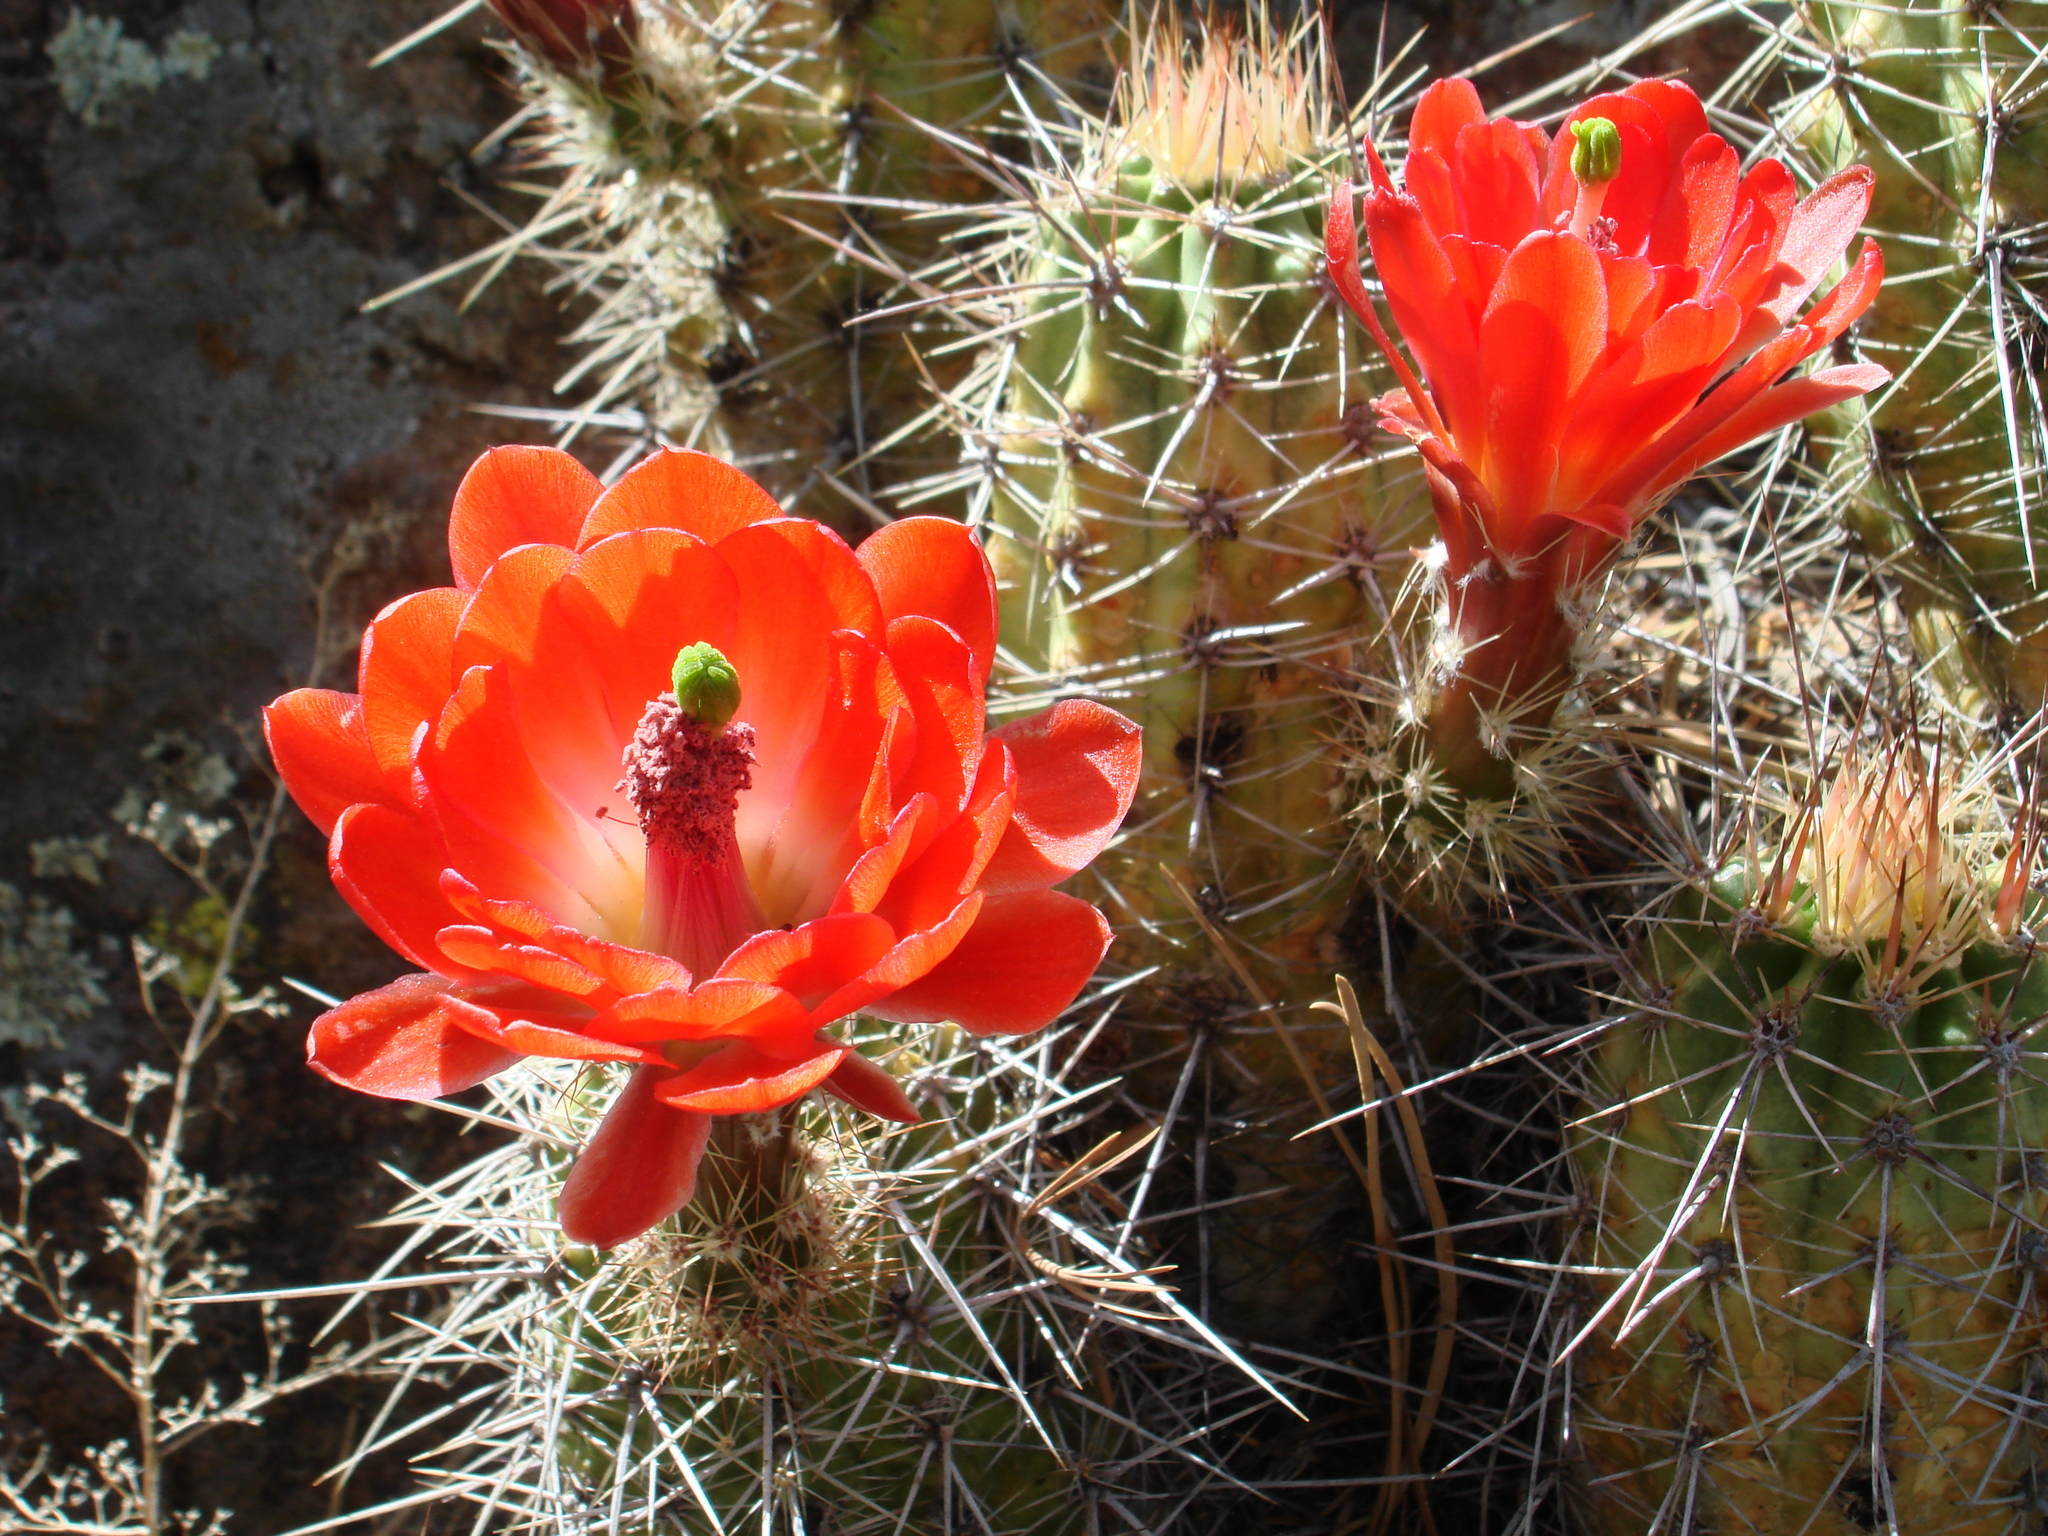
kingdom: Plantae
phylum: Tracheophyta
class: Magnoliopsida
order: Caryophyllales
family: Cactaceae
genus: Echinocereus
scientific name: Echinocereus coccineus
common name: Scarlet hedgehog cactus
